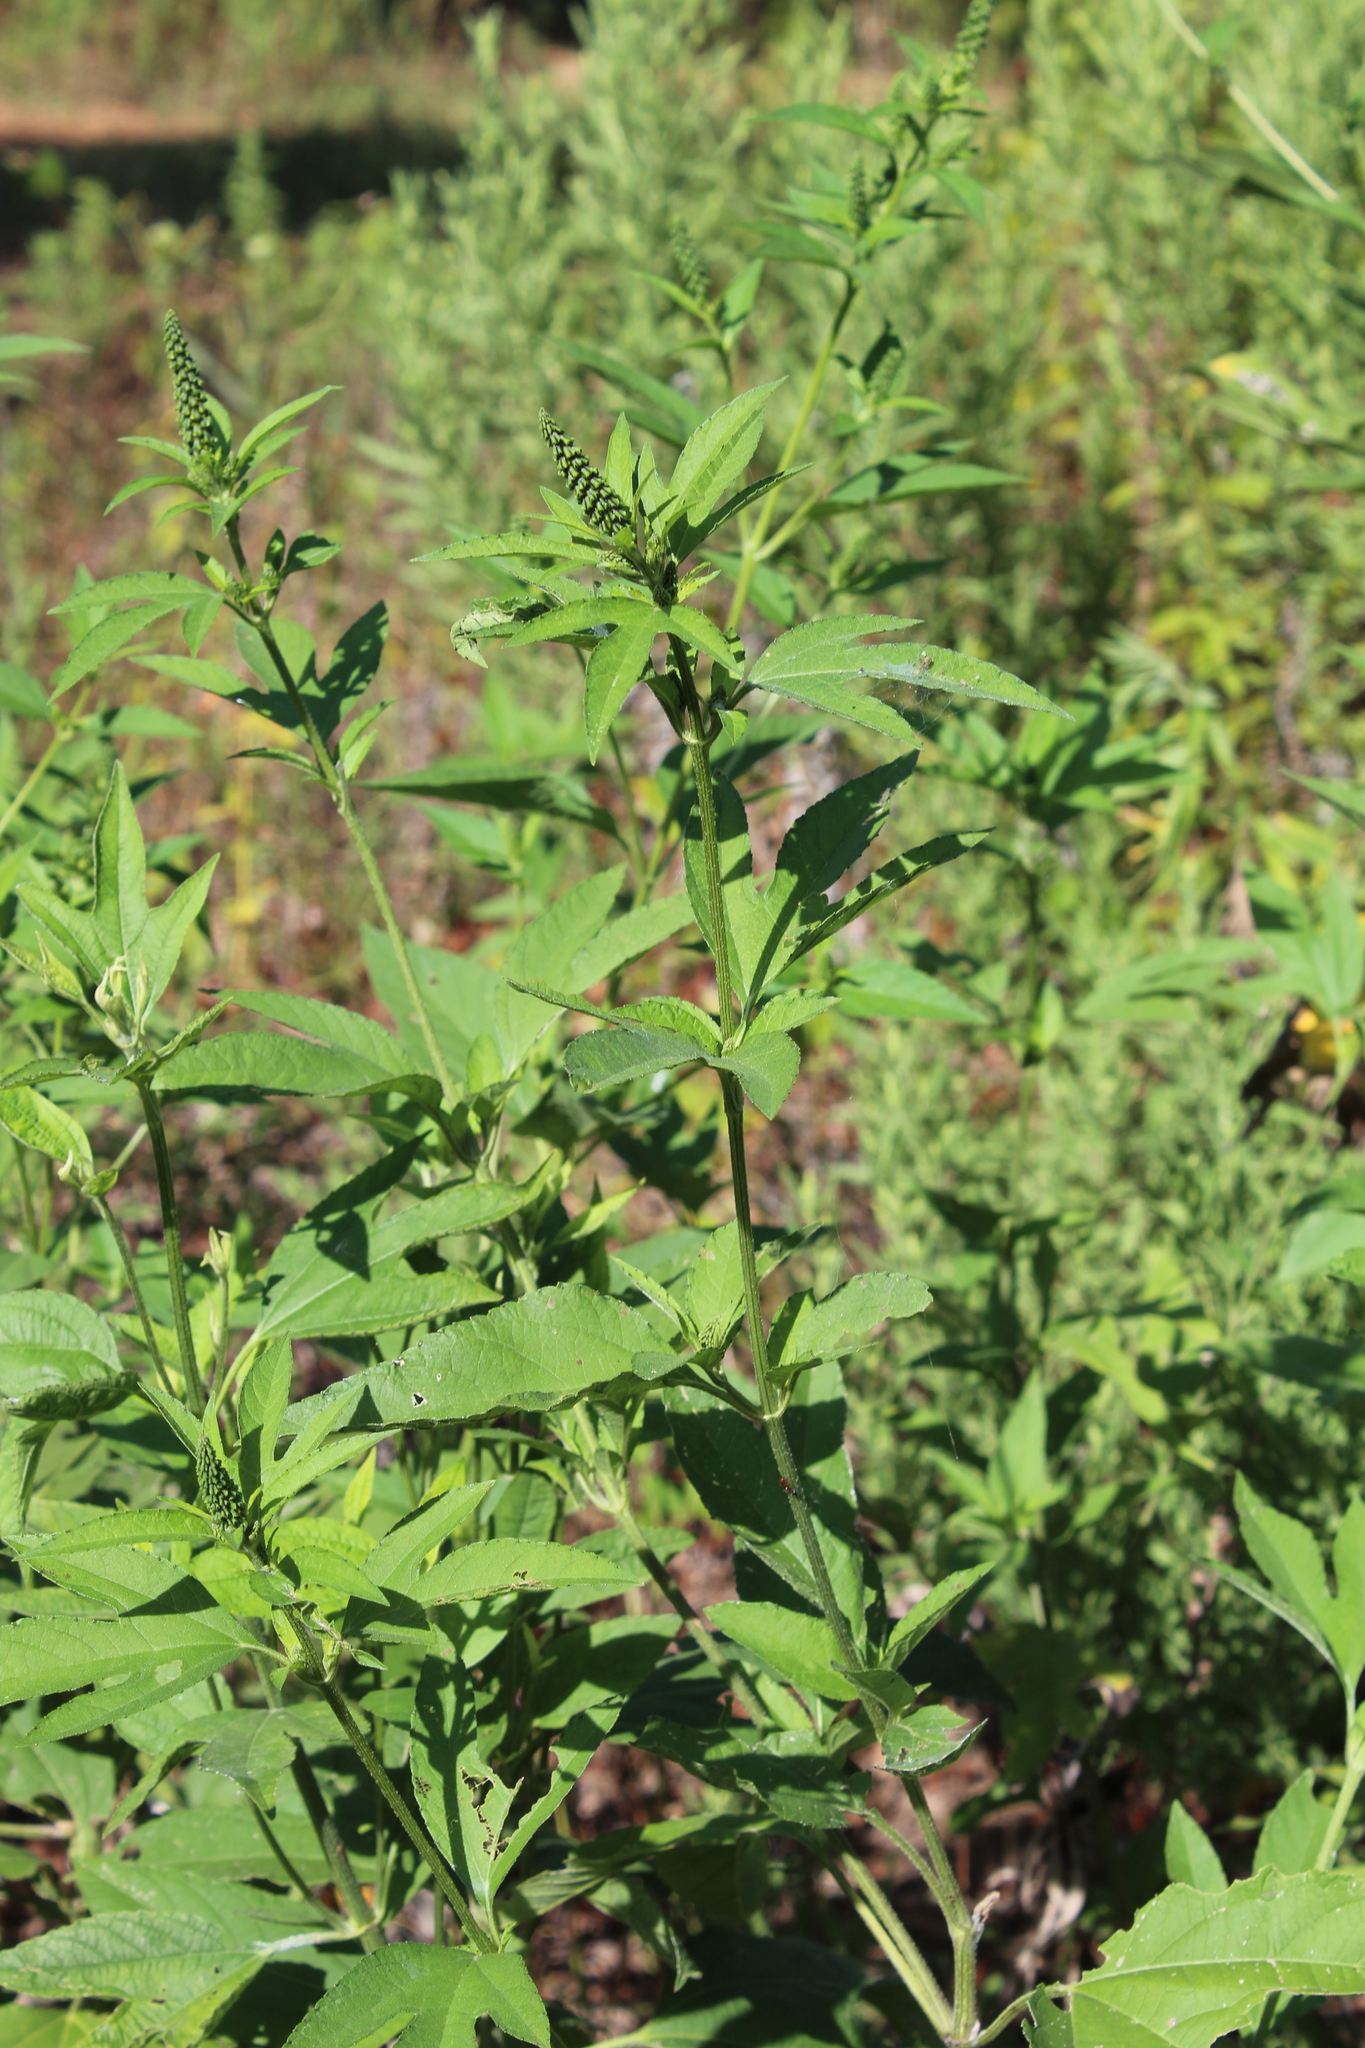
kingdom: Plantae
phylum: Tracheophyta
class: Magnoliopsida
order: Asterales
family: Asteraceae
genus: Ambrosia
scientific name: Ambrosia trifida
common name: Giant ragweed
